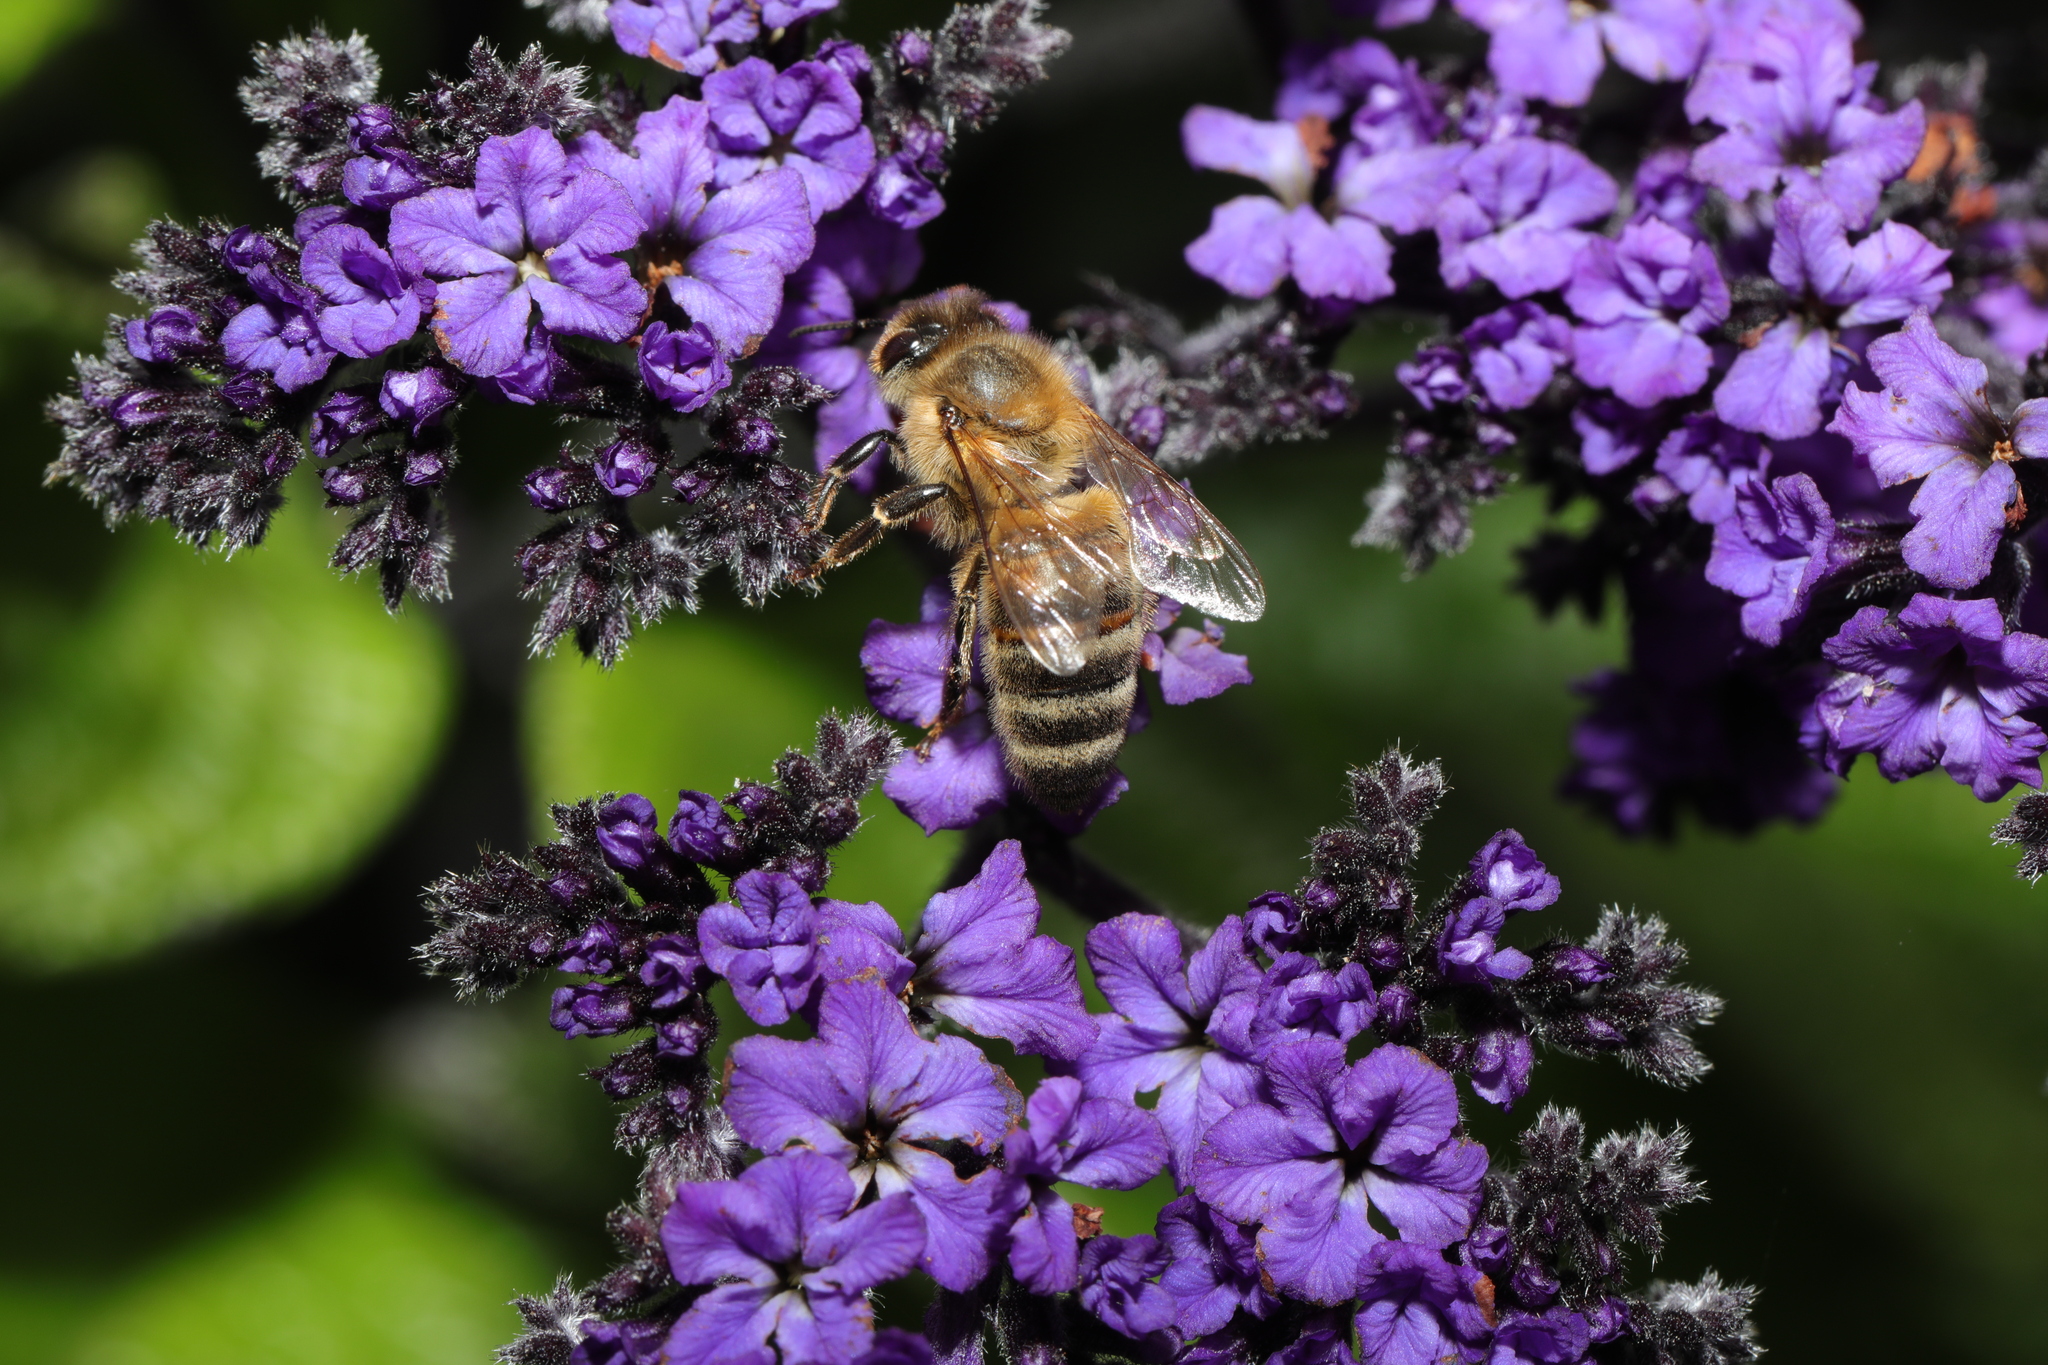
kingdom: Animalia
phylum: Arthropoda
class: Insecta
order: Hymenoptera
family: Apidae
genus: Apis
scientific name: Apis mellifera
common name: Honey bee
